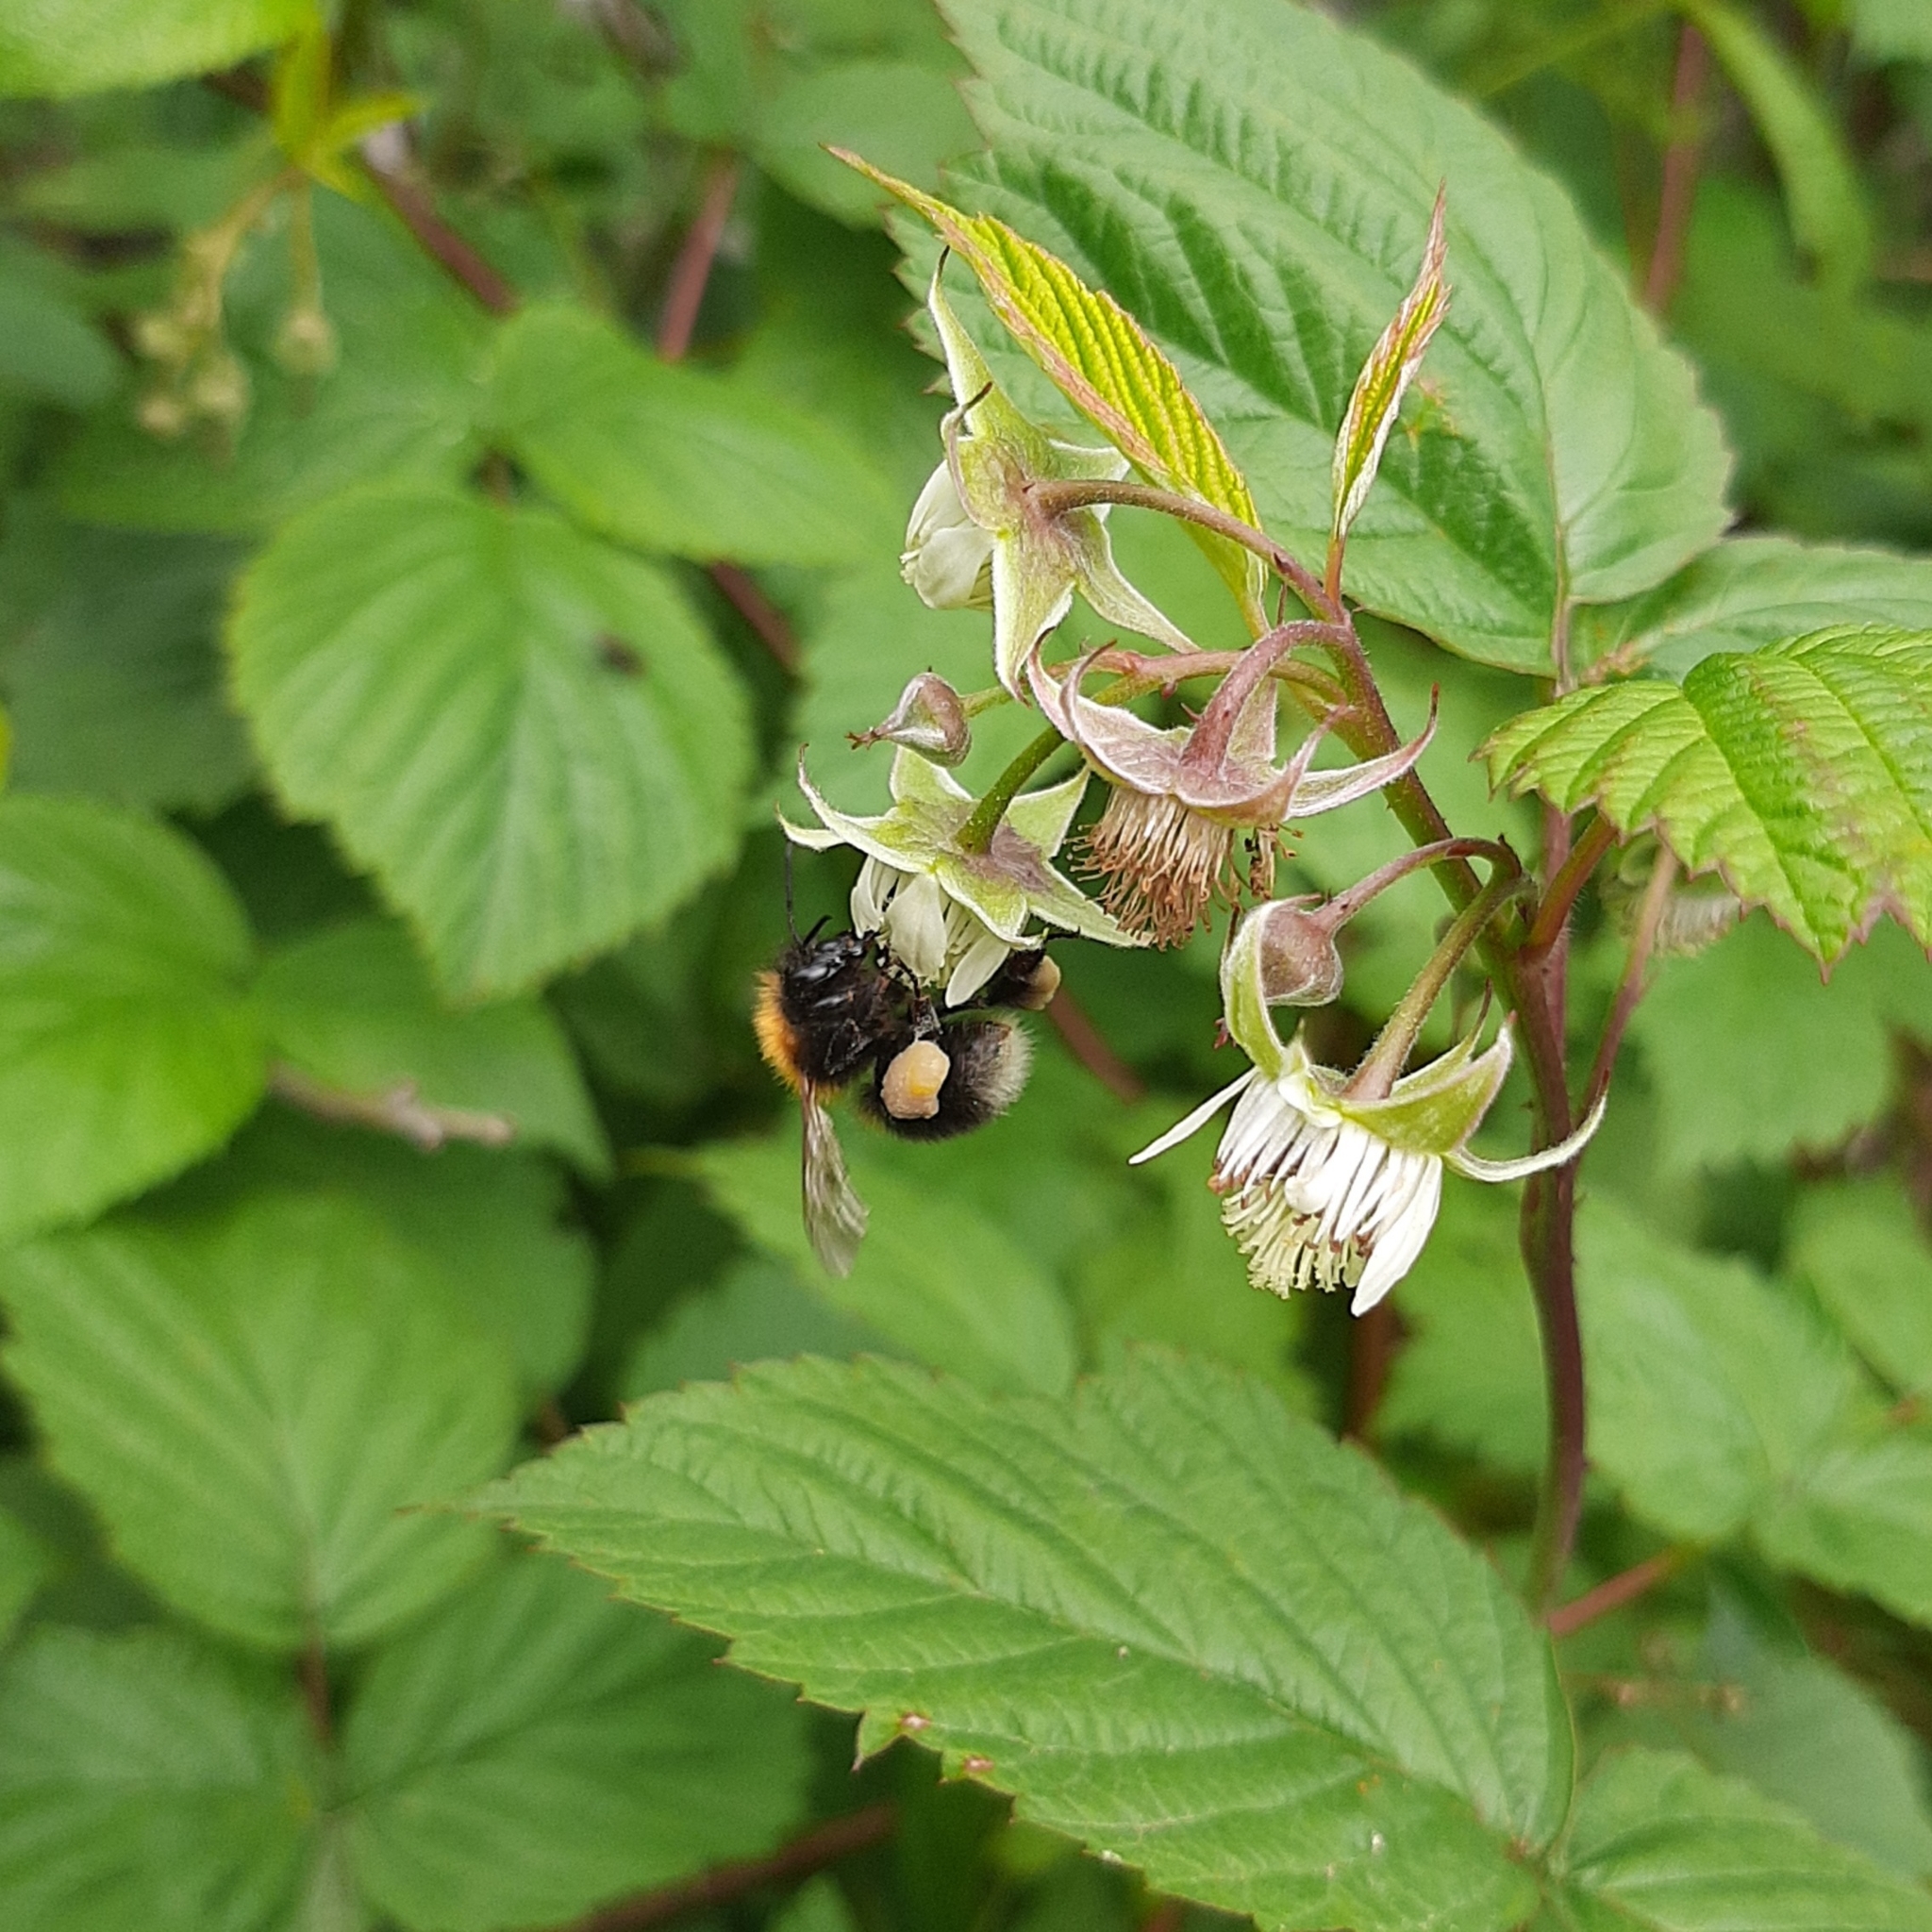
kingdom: Animalia
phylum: Arthropoda
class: Insecta
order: Hymenoptera
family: Apidae
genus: Bombus
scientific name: Bombus hypnorum
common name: New garden bumblebee
